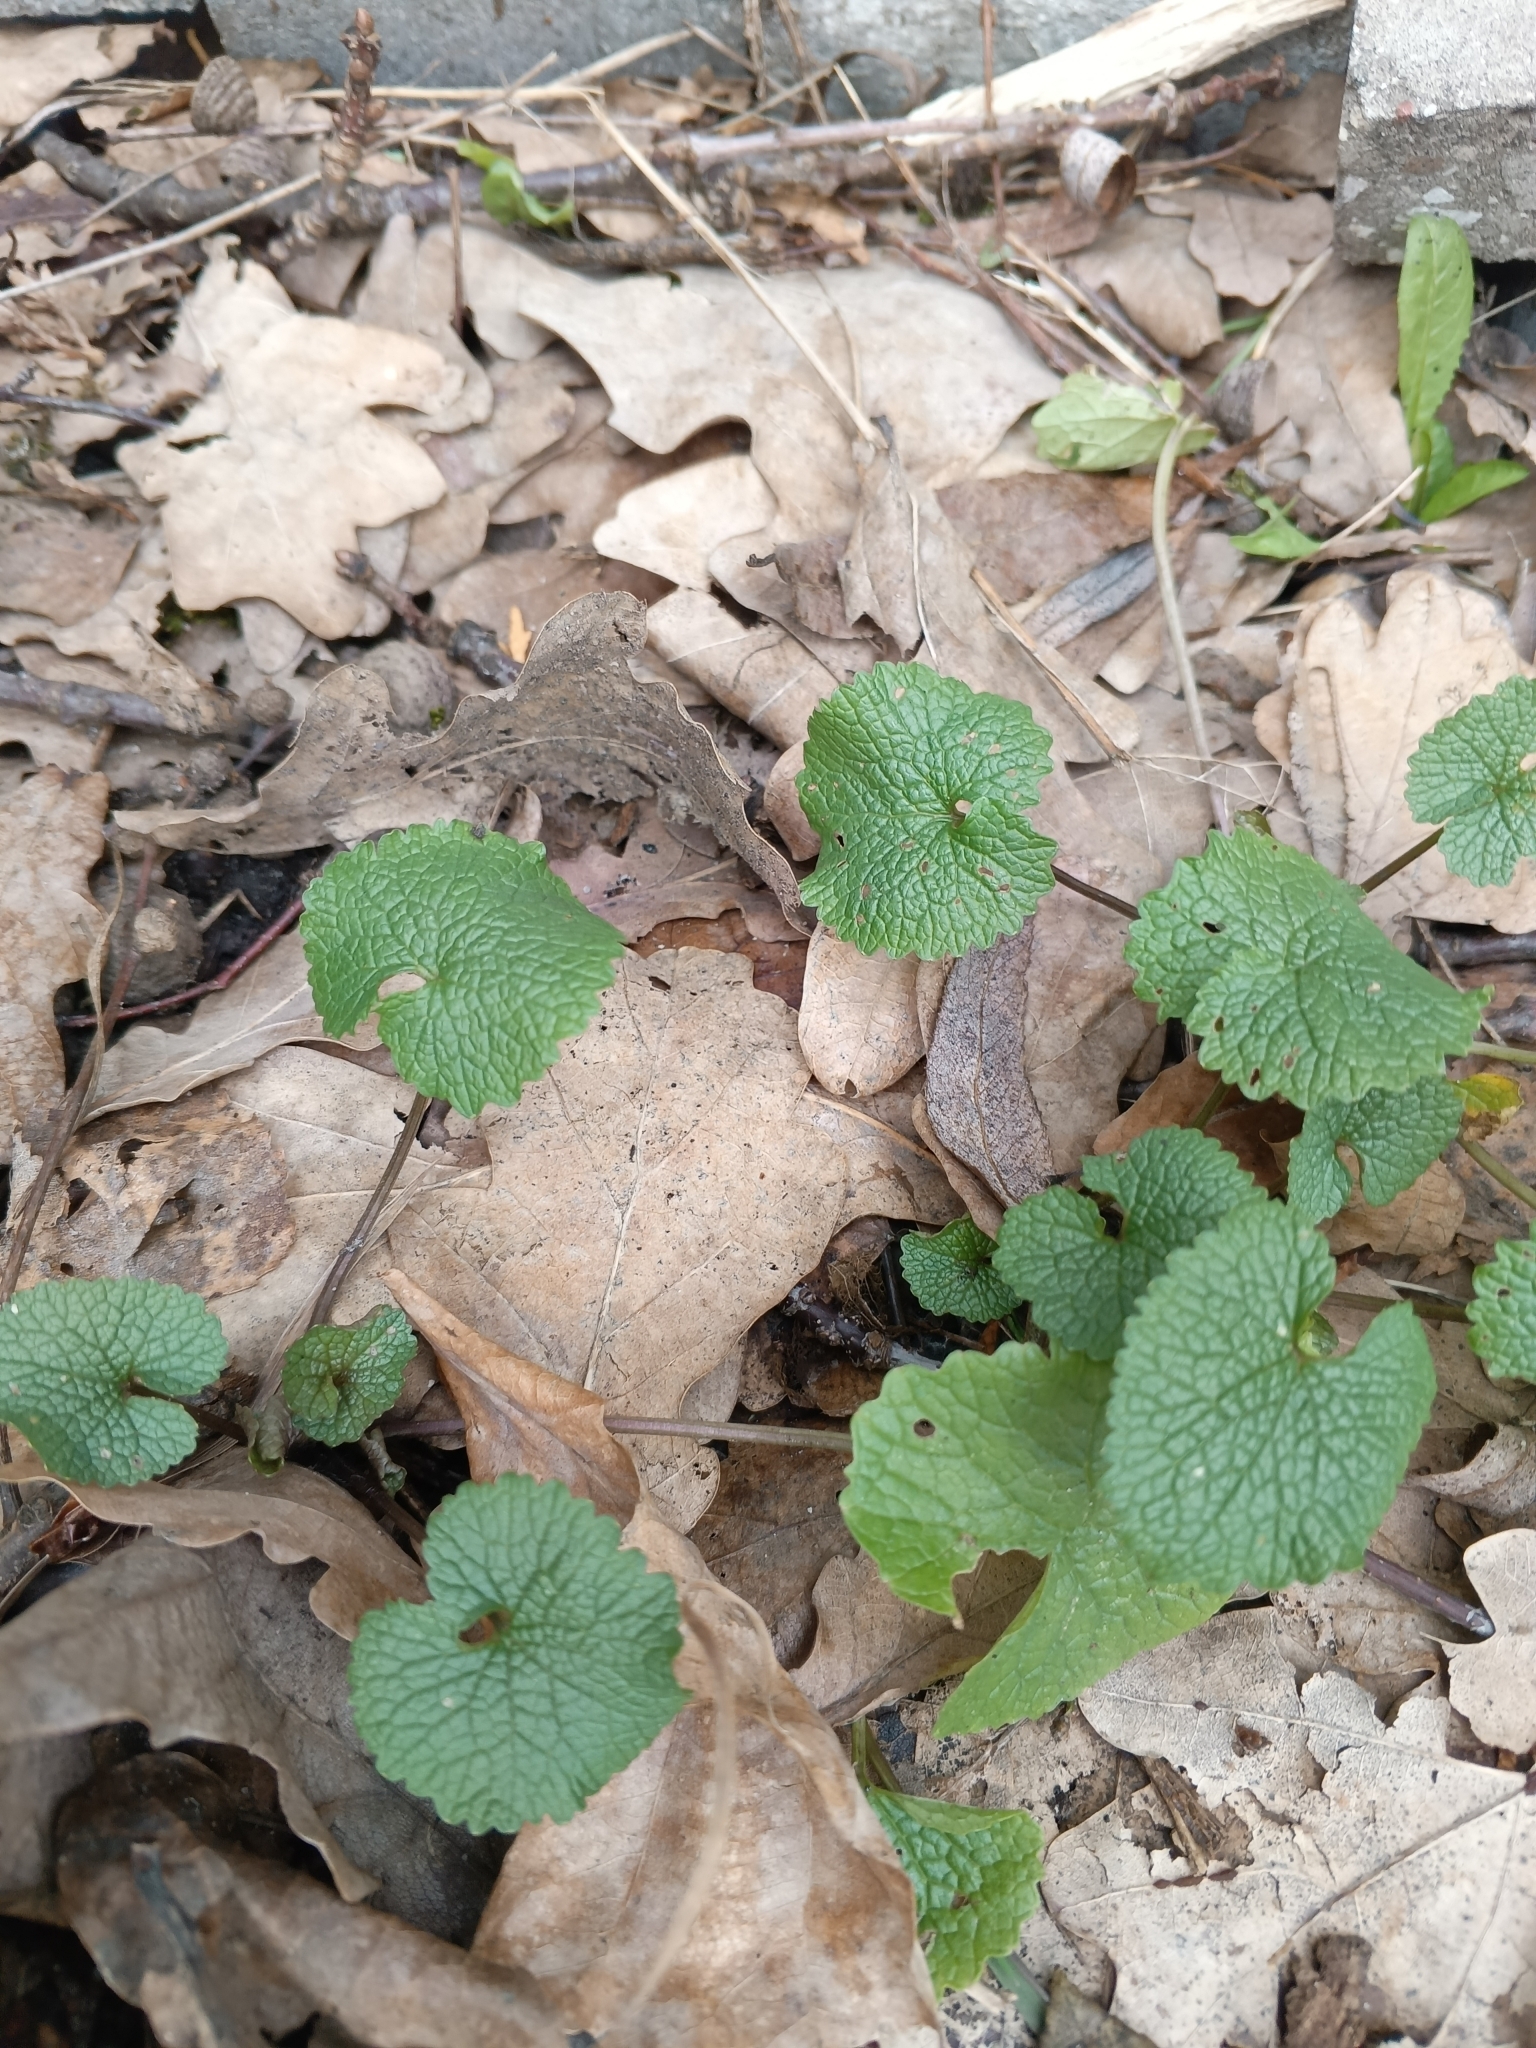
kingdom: Plantae
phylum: Tracheophyta
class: Magnoliopsida
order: Brassicales
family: Brassicaceae
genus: Alliaria
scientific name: Alliaria petiolata
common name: Garlic mustard
